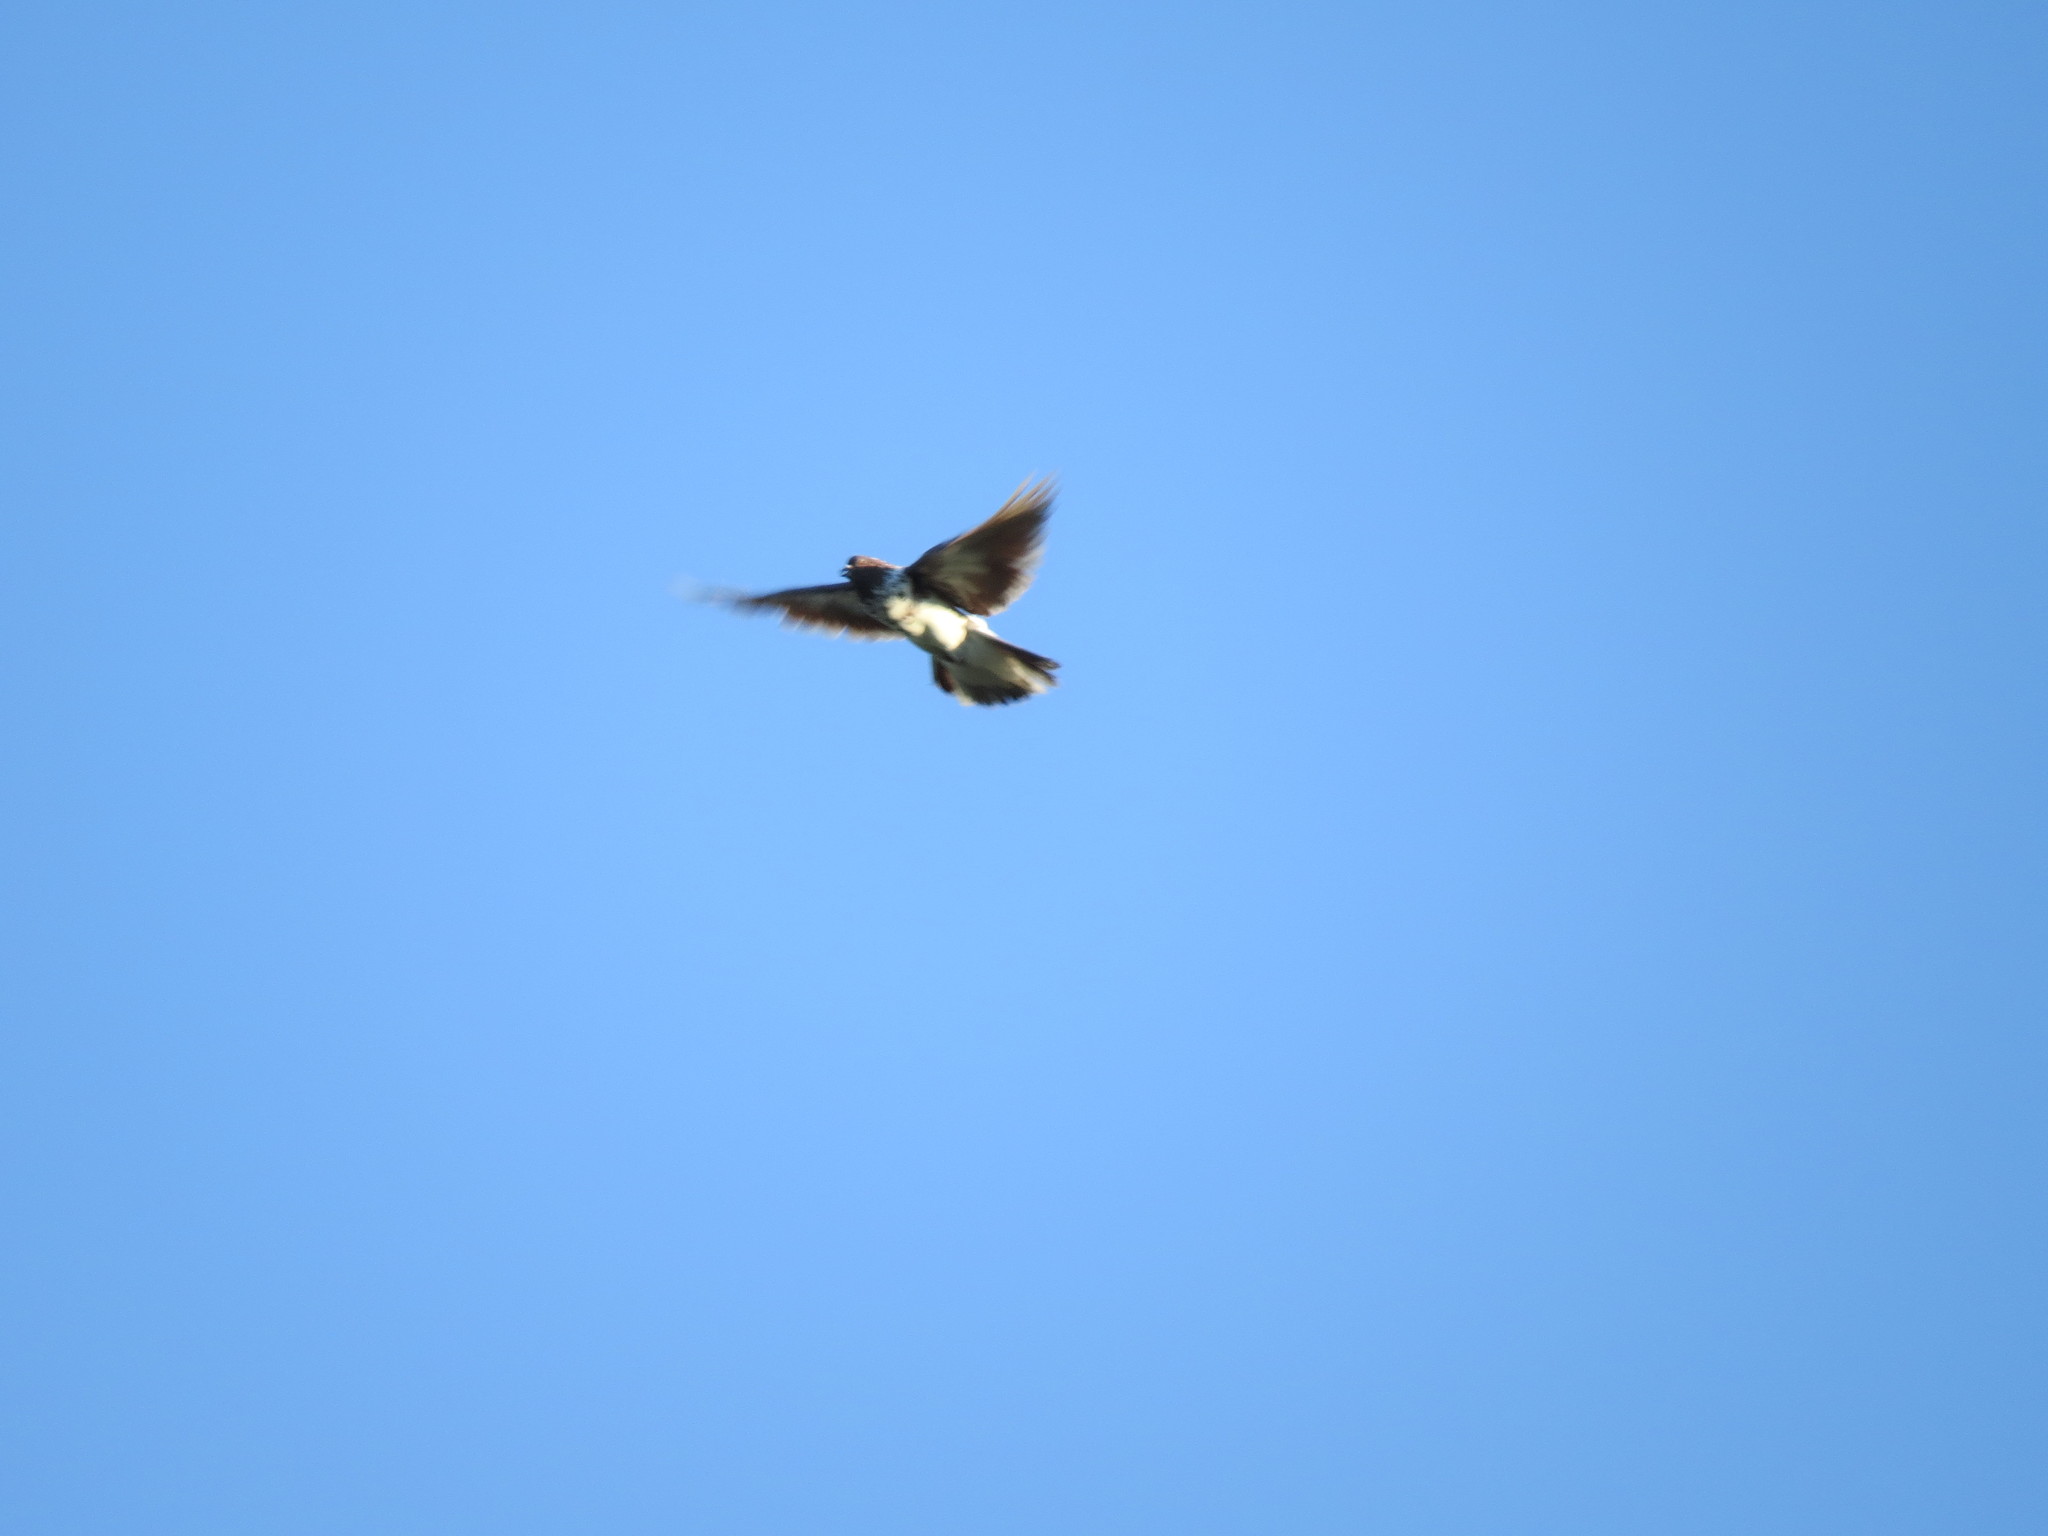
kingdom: Animalia
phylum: Chordata
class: Aves
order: Columbiformes
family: Columbidae
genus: Columba
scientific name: Columba livia
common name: Rock pigeon
